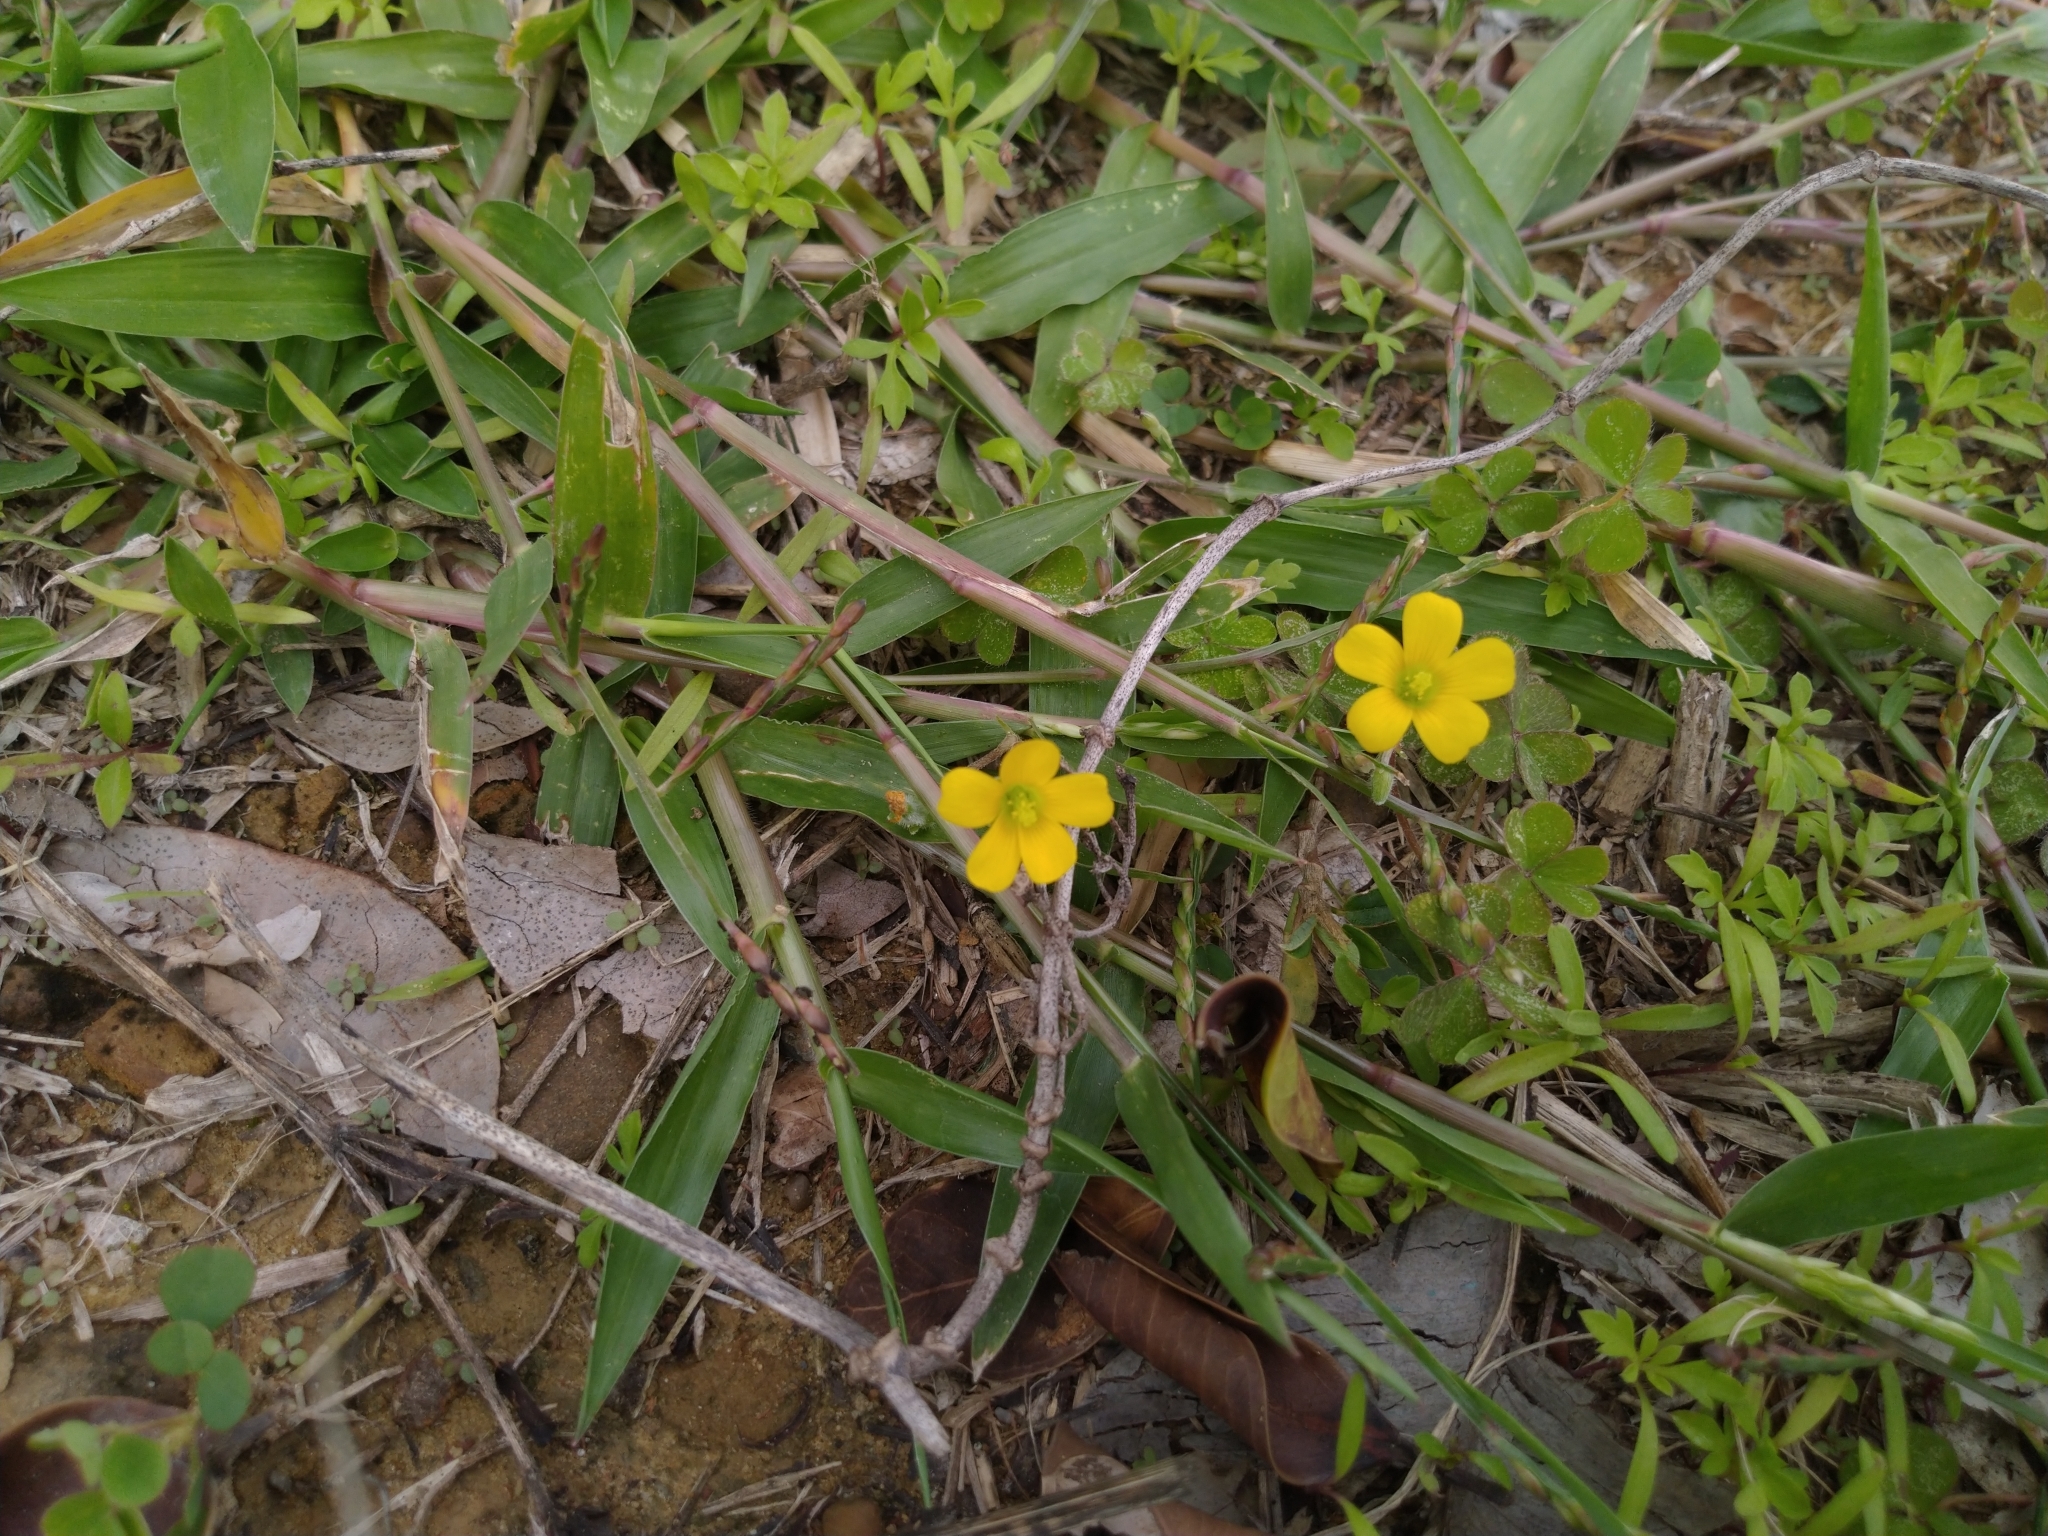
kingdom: Plantae
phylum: Tracheophyta
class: Magnoliopsida
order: Oxalidales
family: Oxalidaceae
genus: Oxalis
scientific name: Oxalis corniculata
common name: Procumbent yellow-sorrel
